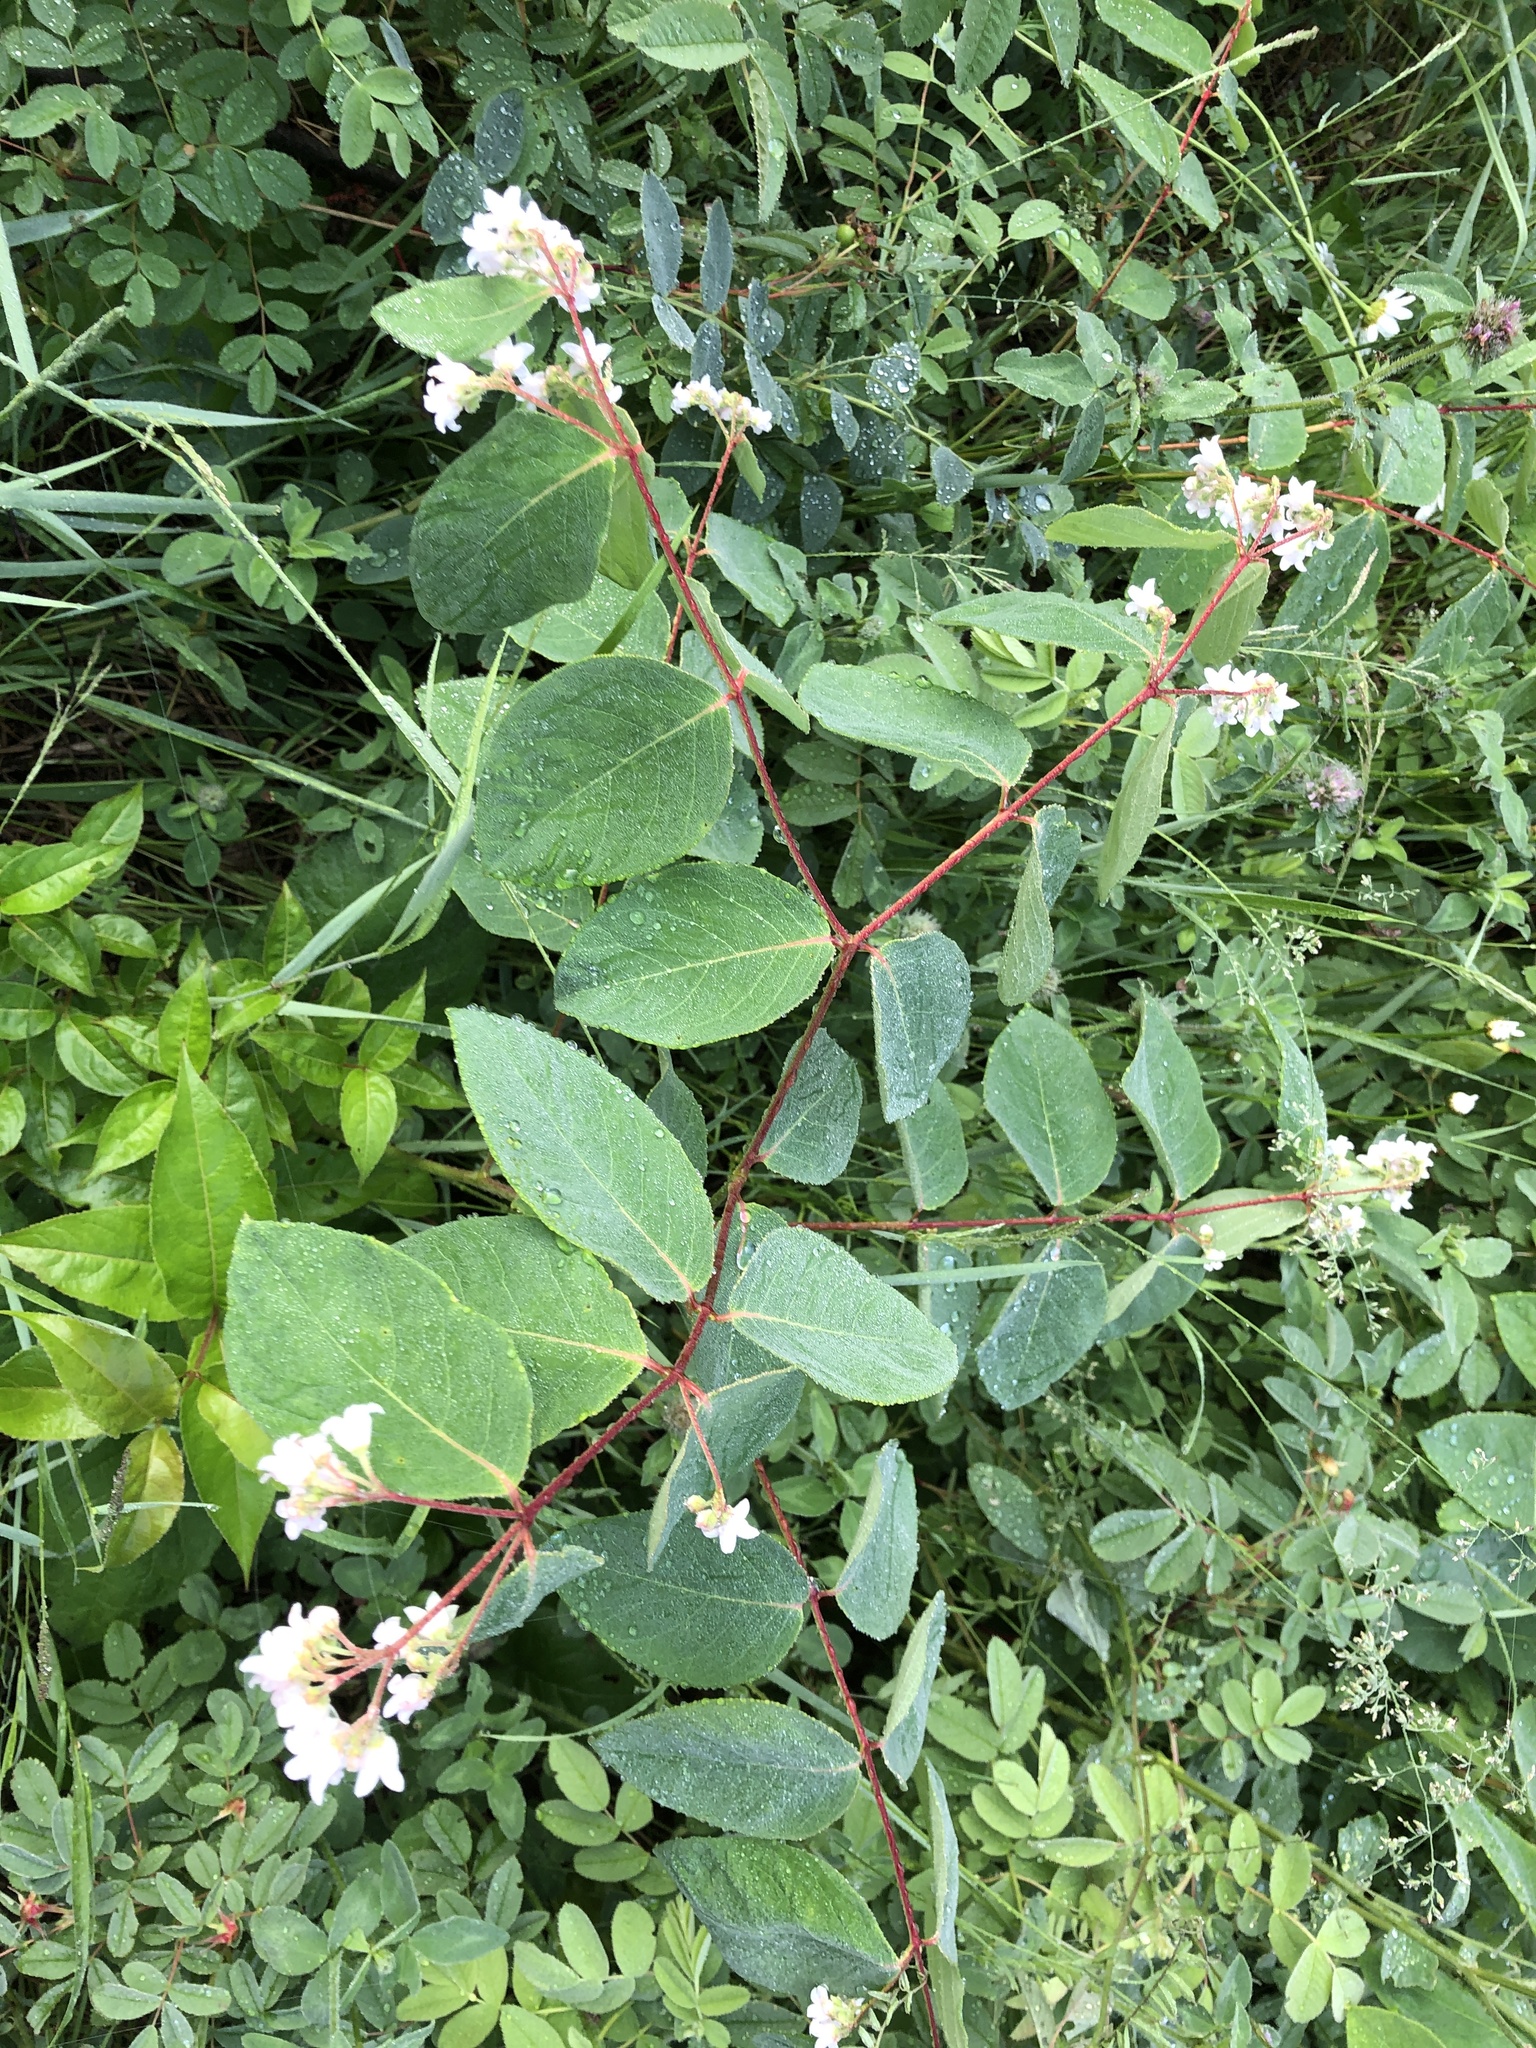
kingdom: Plantae
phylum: Tracheophyta
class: Magnoliopsida
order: Gentianales
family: Apocynaceae
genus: Apocynum
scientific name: Apocynum androsaemifolium
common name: Spreading dogbane
